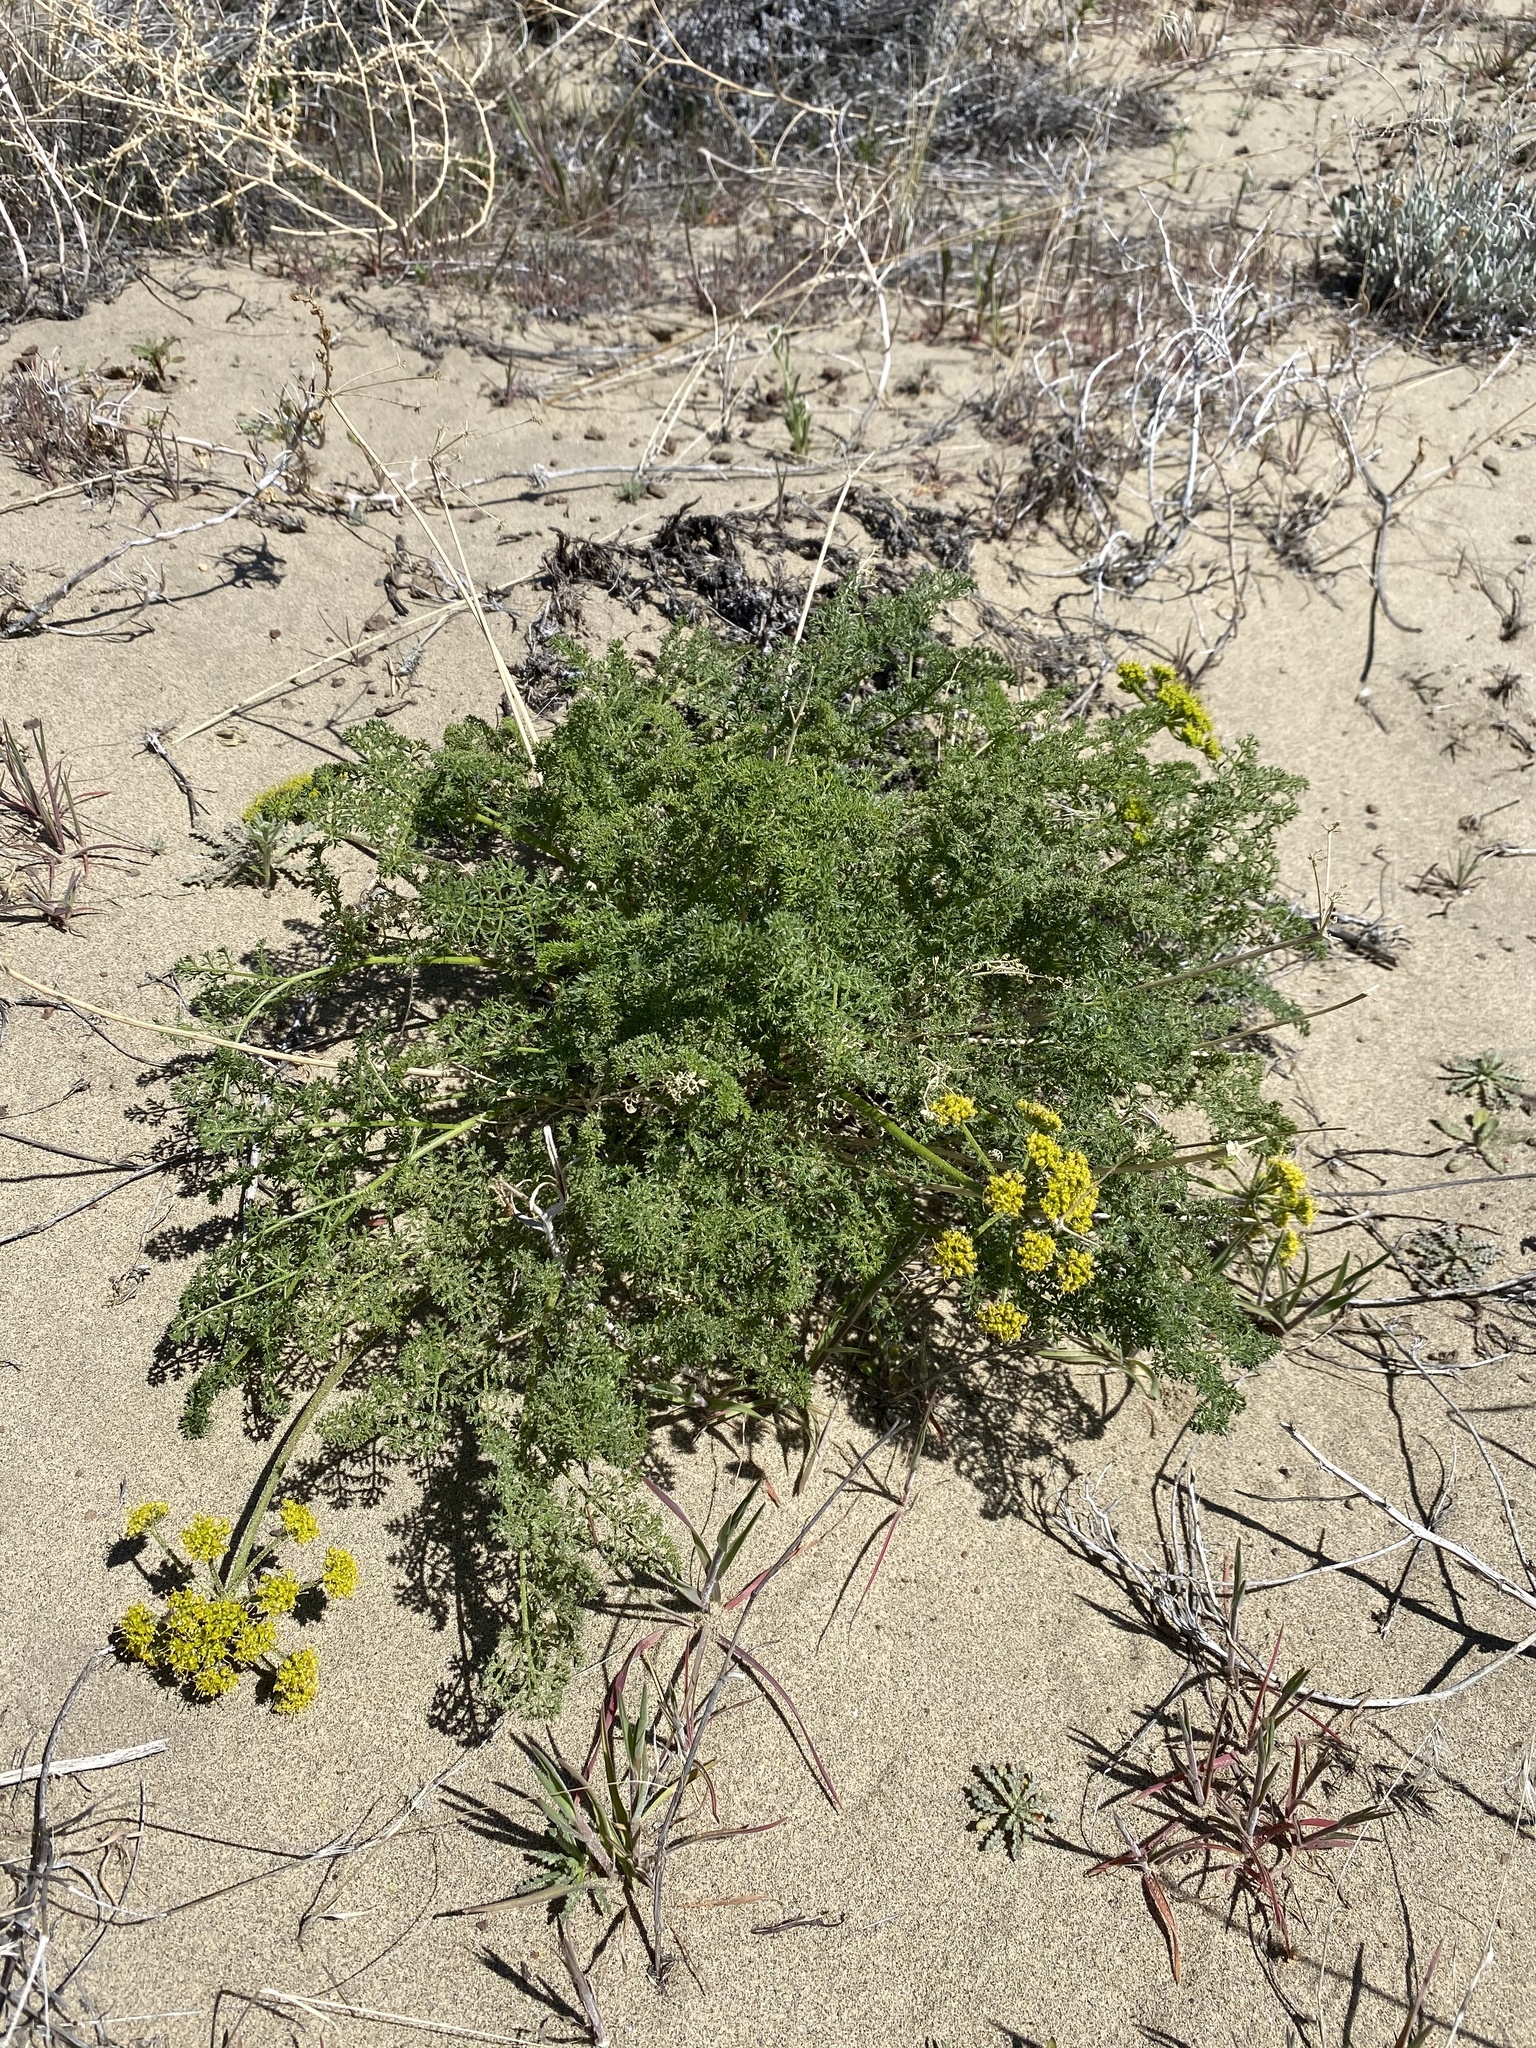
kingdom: Plantae
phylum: Tracheophyta
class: Magnoliopsida
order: Apiales
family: Apiaceae
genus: Pteryxia
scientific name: Pteryxia terebinthina
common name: Turpentine wavewing
